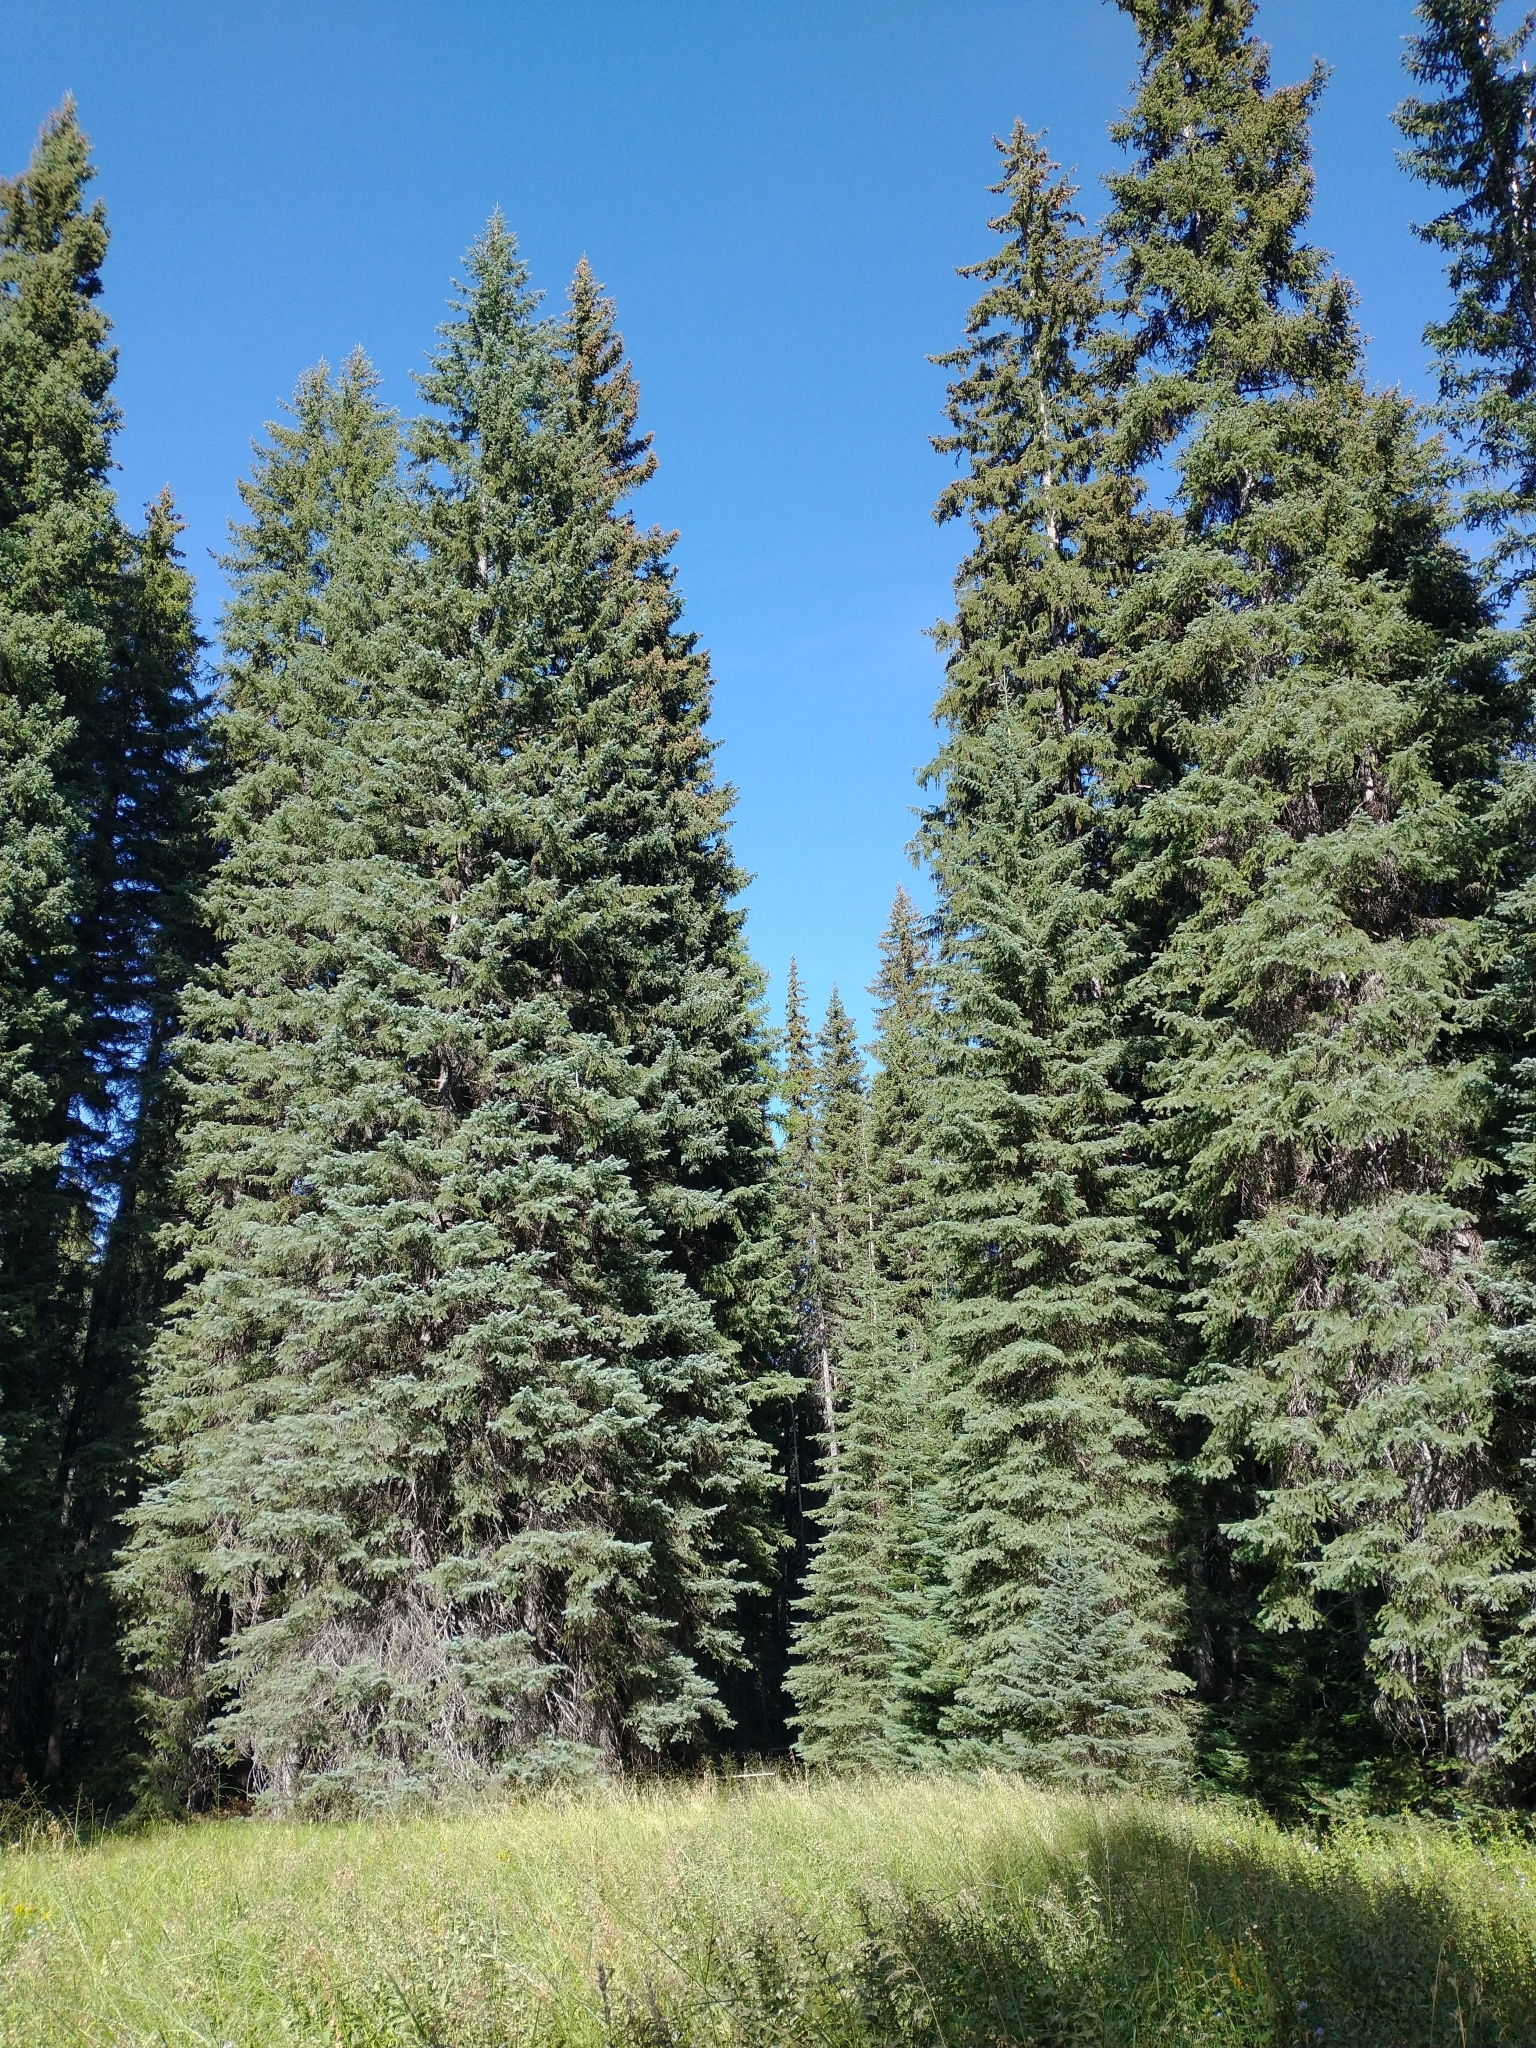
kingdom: Plantae
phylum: Tracheophyta
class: Pinopsida
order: Pinales
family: Pinaceae
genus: Picea
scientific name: Picea engelmannii
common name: Engelmann spruce
